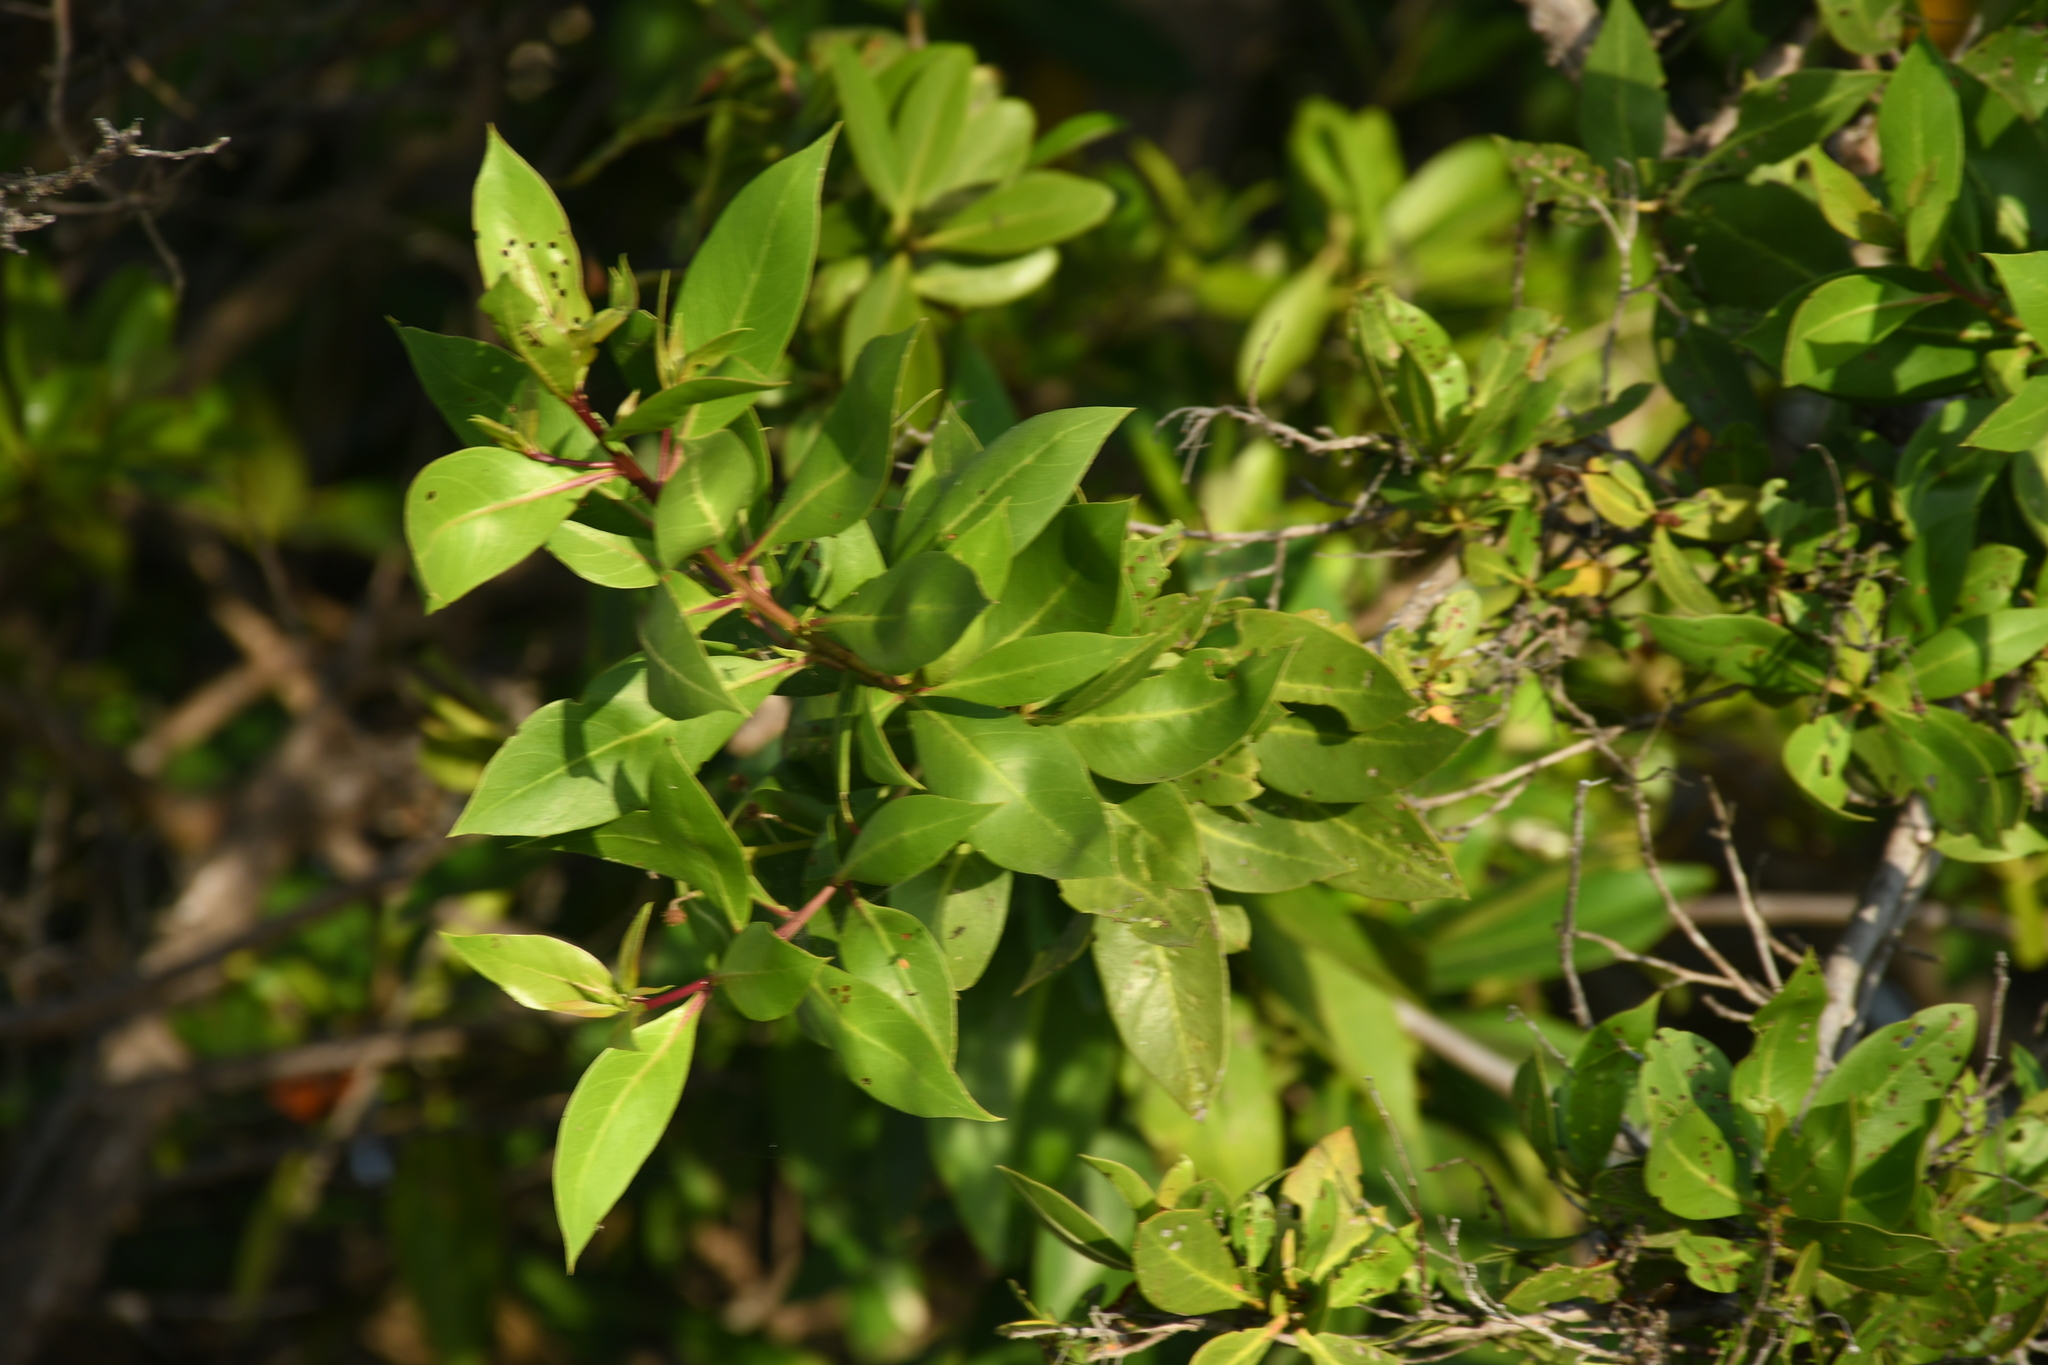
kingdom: Plantae
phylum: Tracheophyta
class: Magnoliopsida
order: Malpighiales
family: Rhizophoraceae
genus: Rhizophora
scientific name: Rhizophora mangle
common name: Red mangrove
